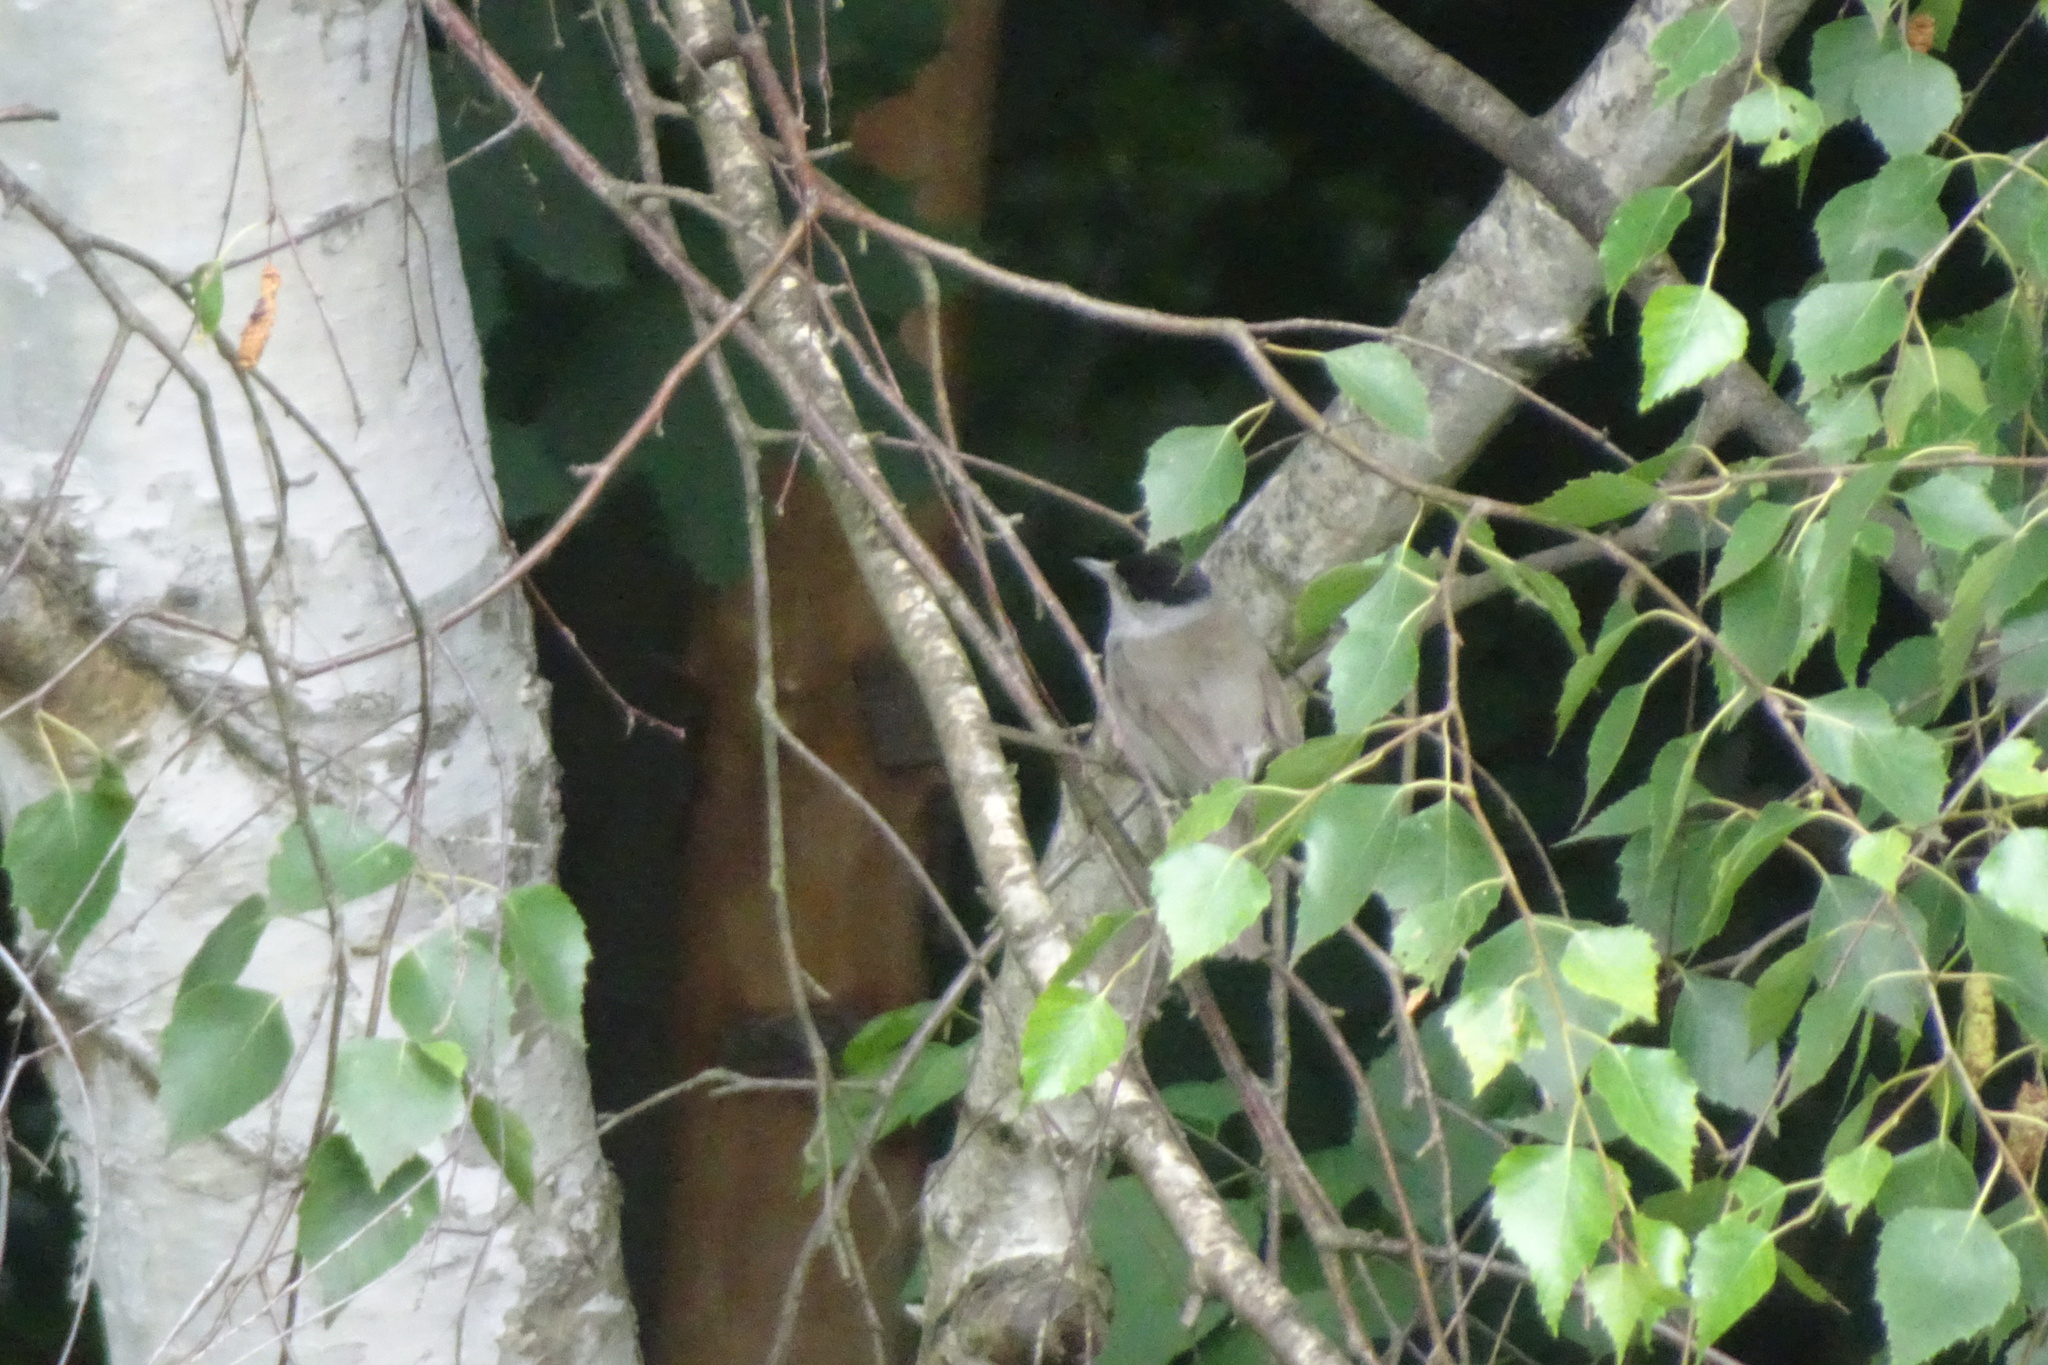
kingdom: Animalia
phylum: Chordata
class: Aves
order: Passeriformes
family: Sylviidae
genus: Sylvia
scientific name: Sylvia atricapilla
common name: Eurasian blackcap
